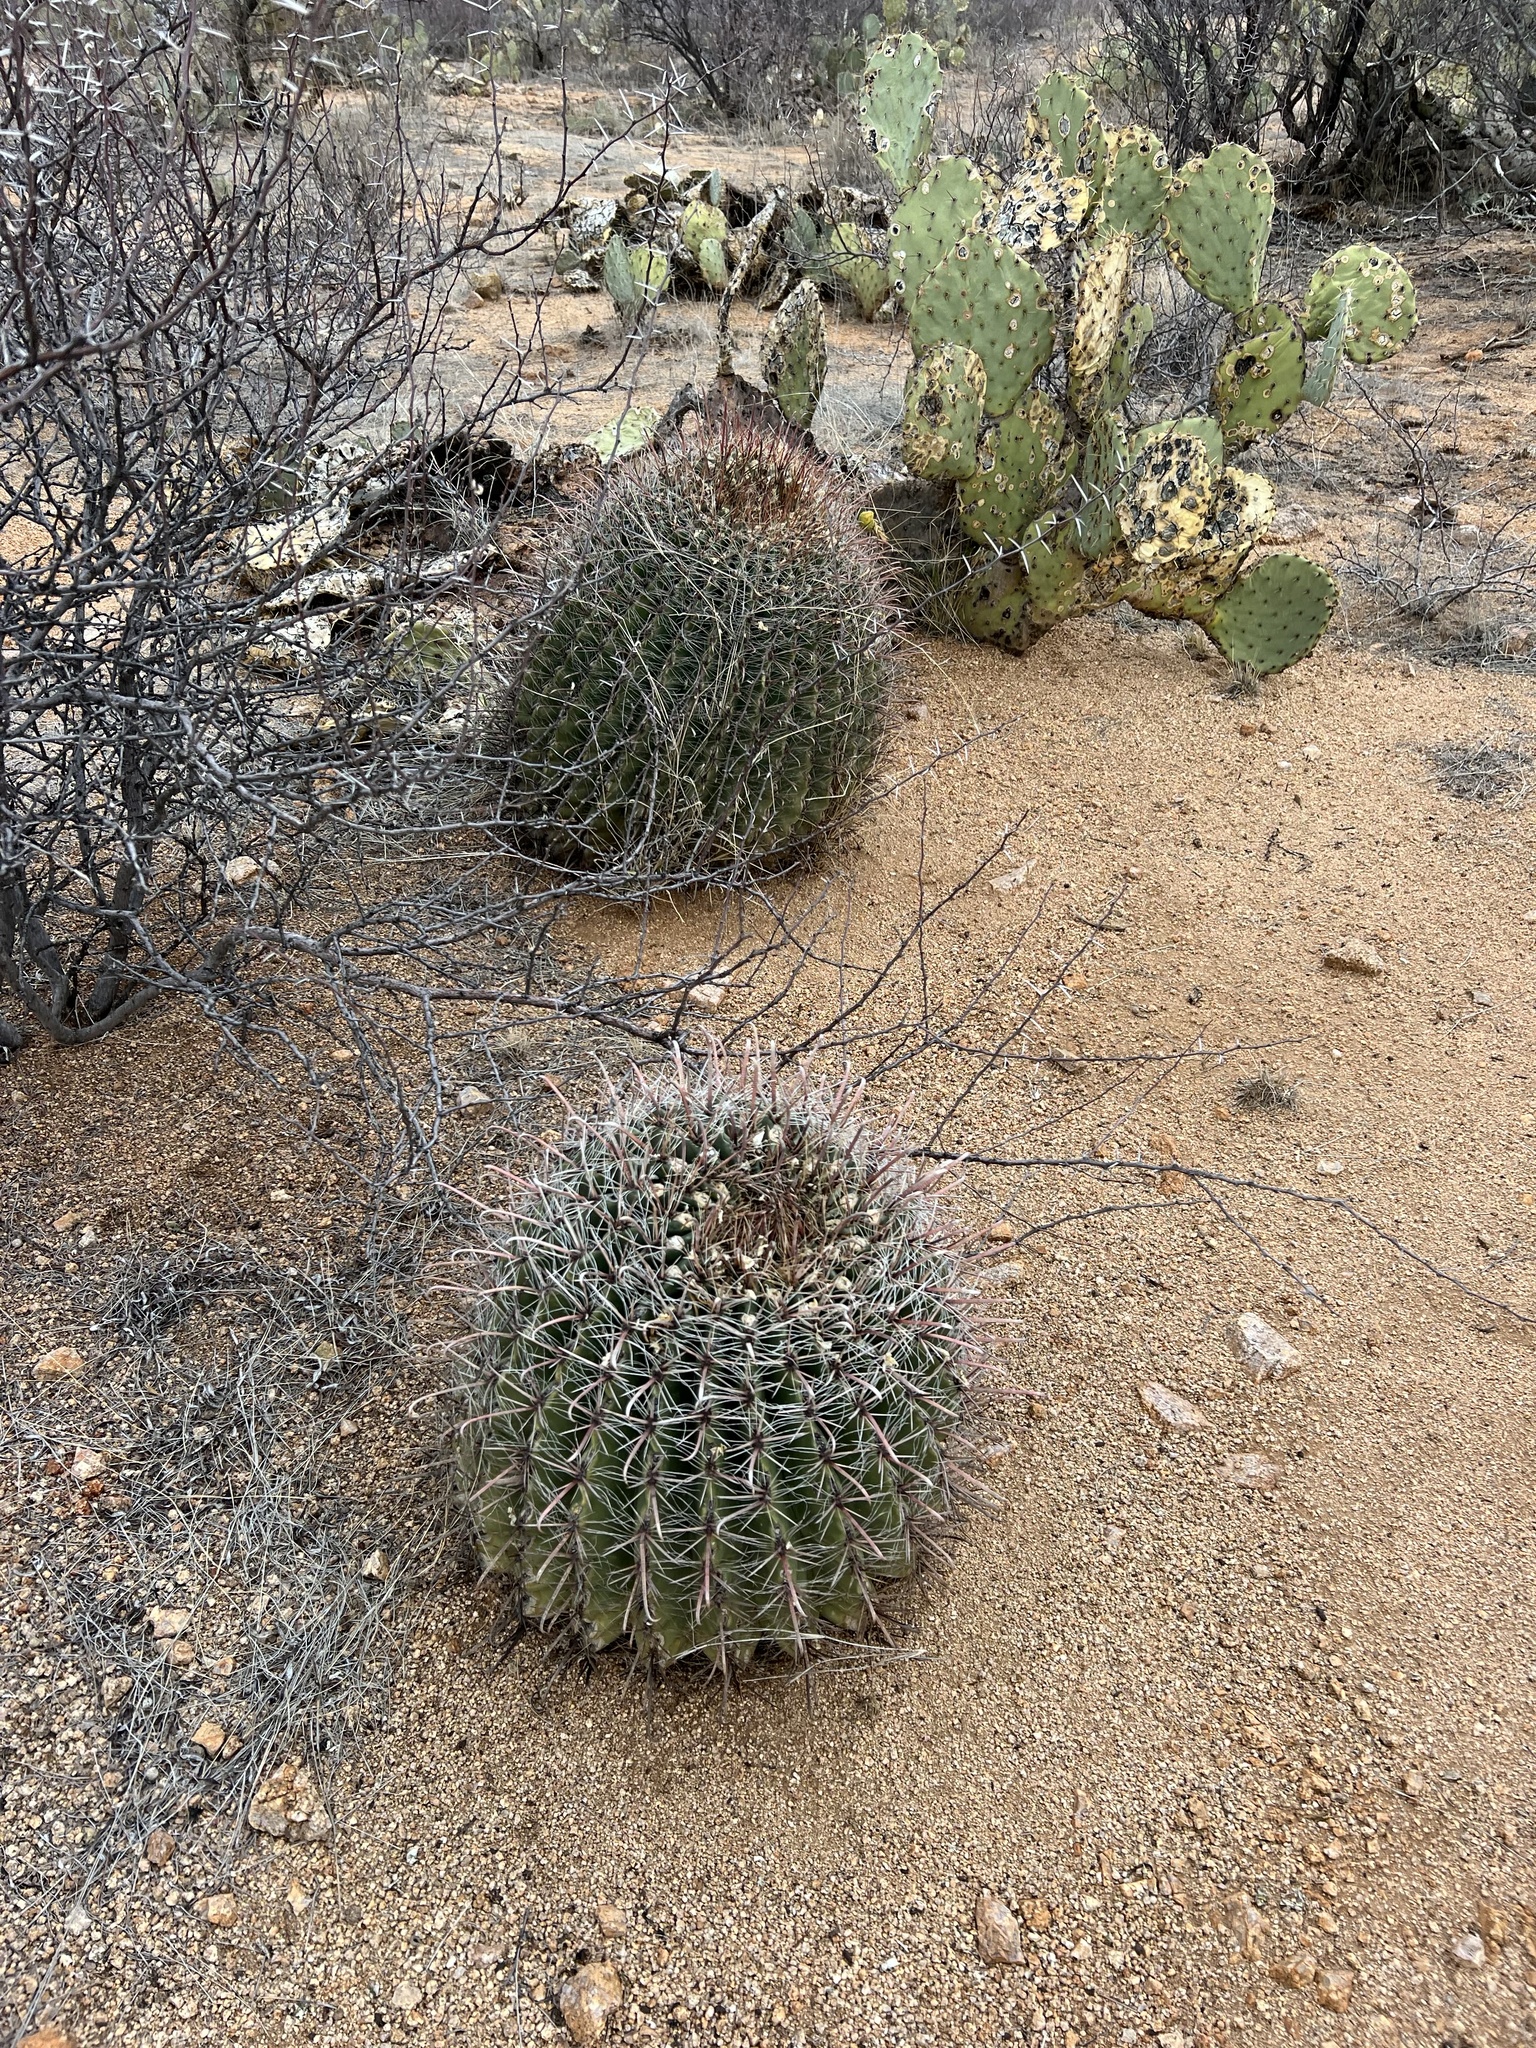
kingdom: Plantae
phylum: Tracheophyta
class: Magnoliopsida
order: Caryophyllales
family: Cactaceae
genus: Ferocactus
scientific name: Ferocactus wislizeni
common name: Candy barrel cactus
